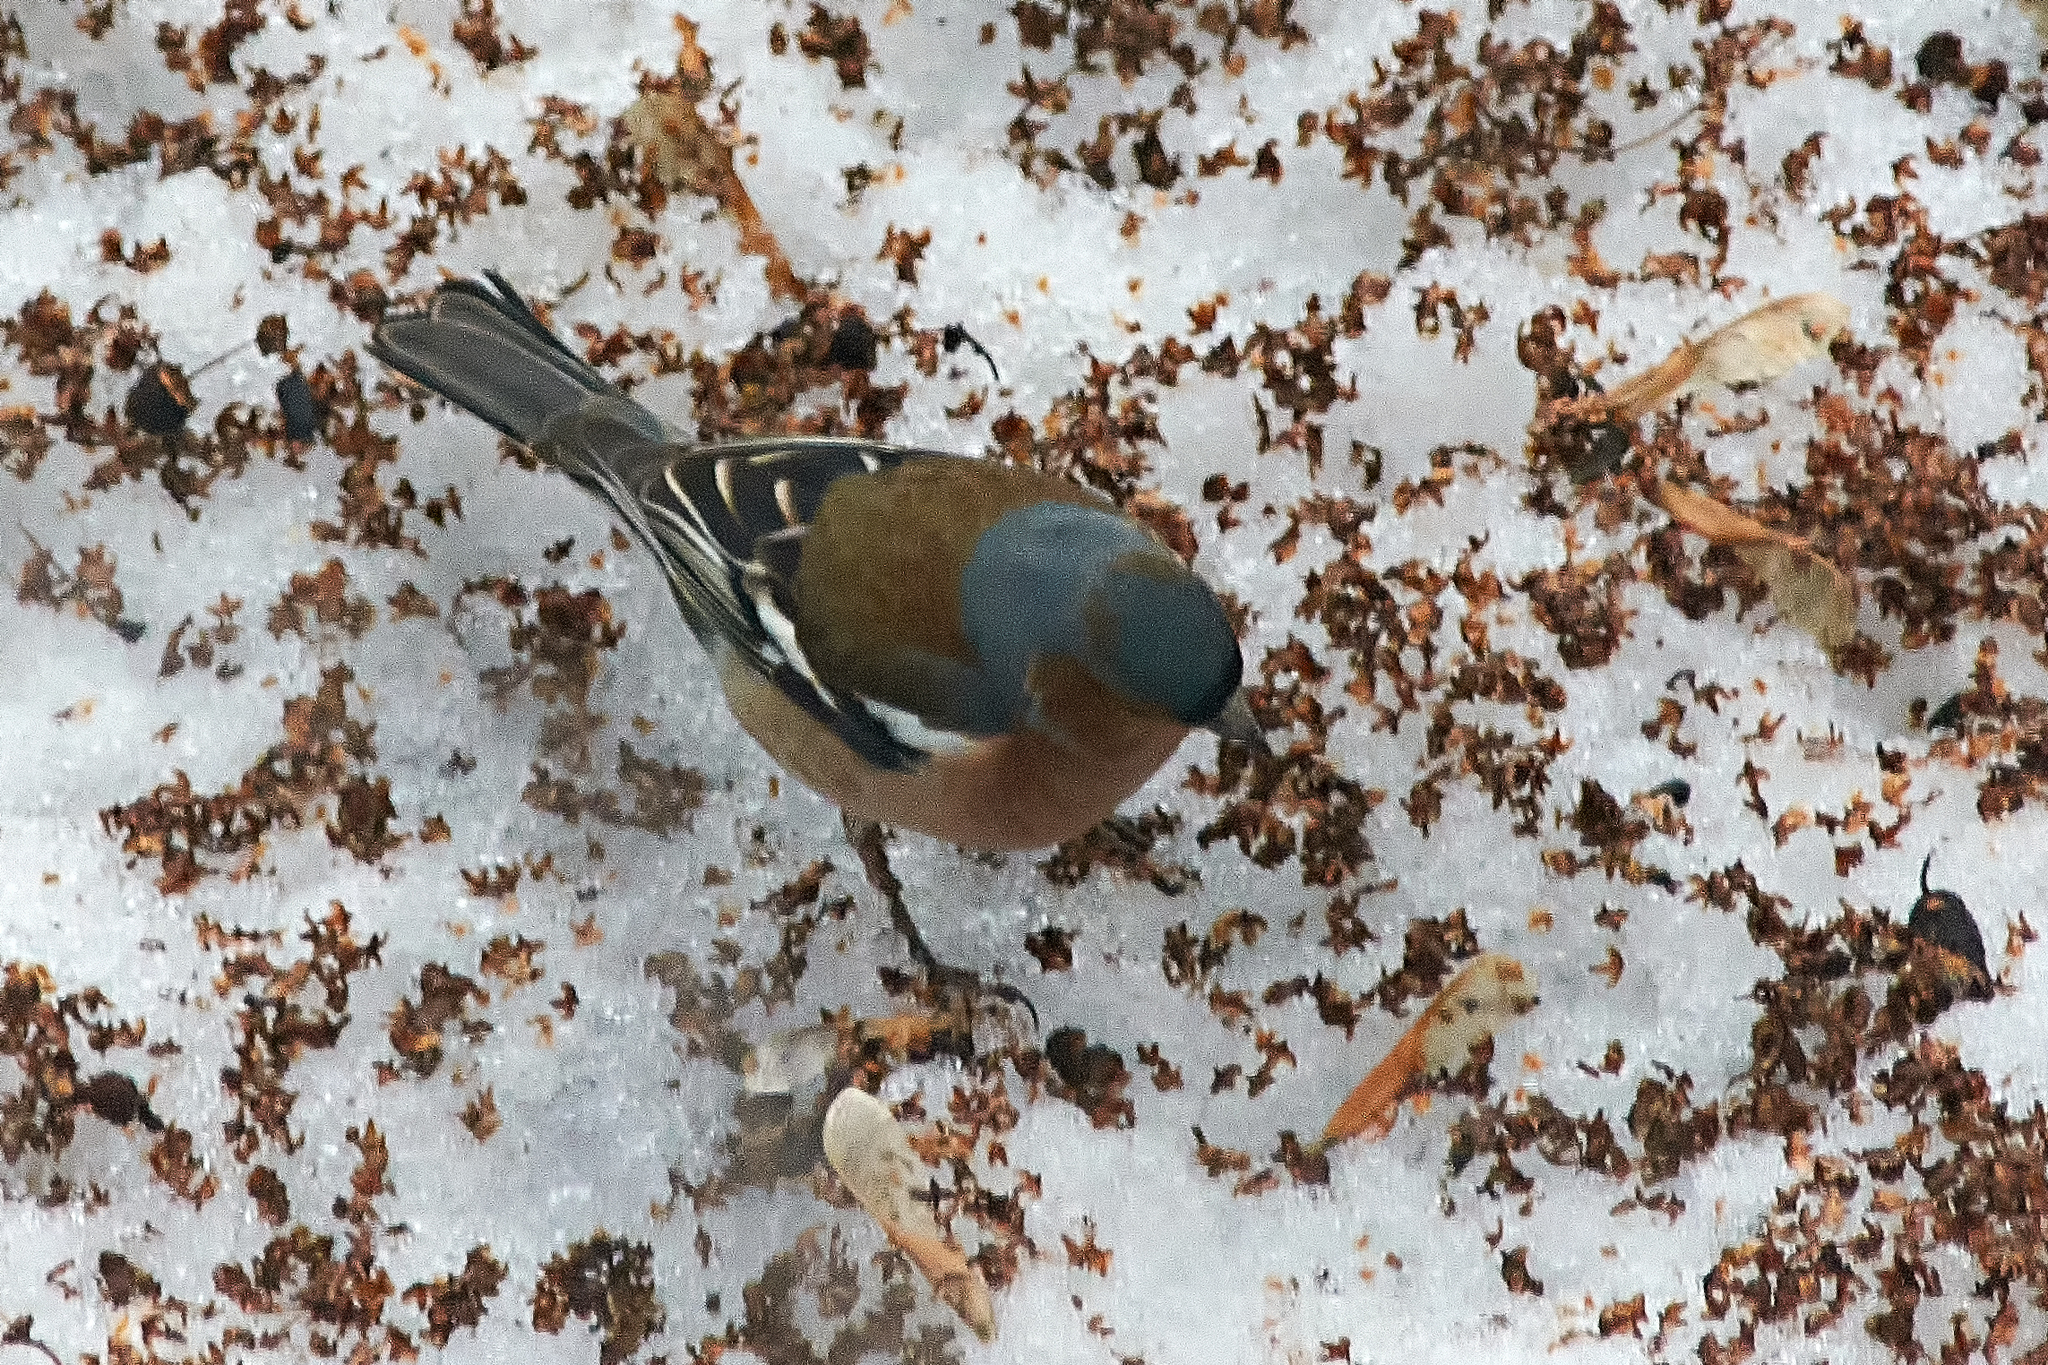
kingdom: Animalia
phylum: Chordata
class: Aves
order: Passeriformes
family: Fringillidae
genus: Fringilla
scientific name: Fringilla coelebs
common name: Common chaffinch
